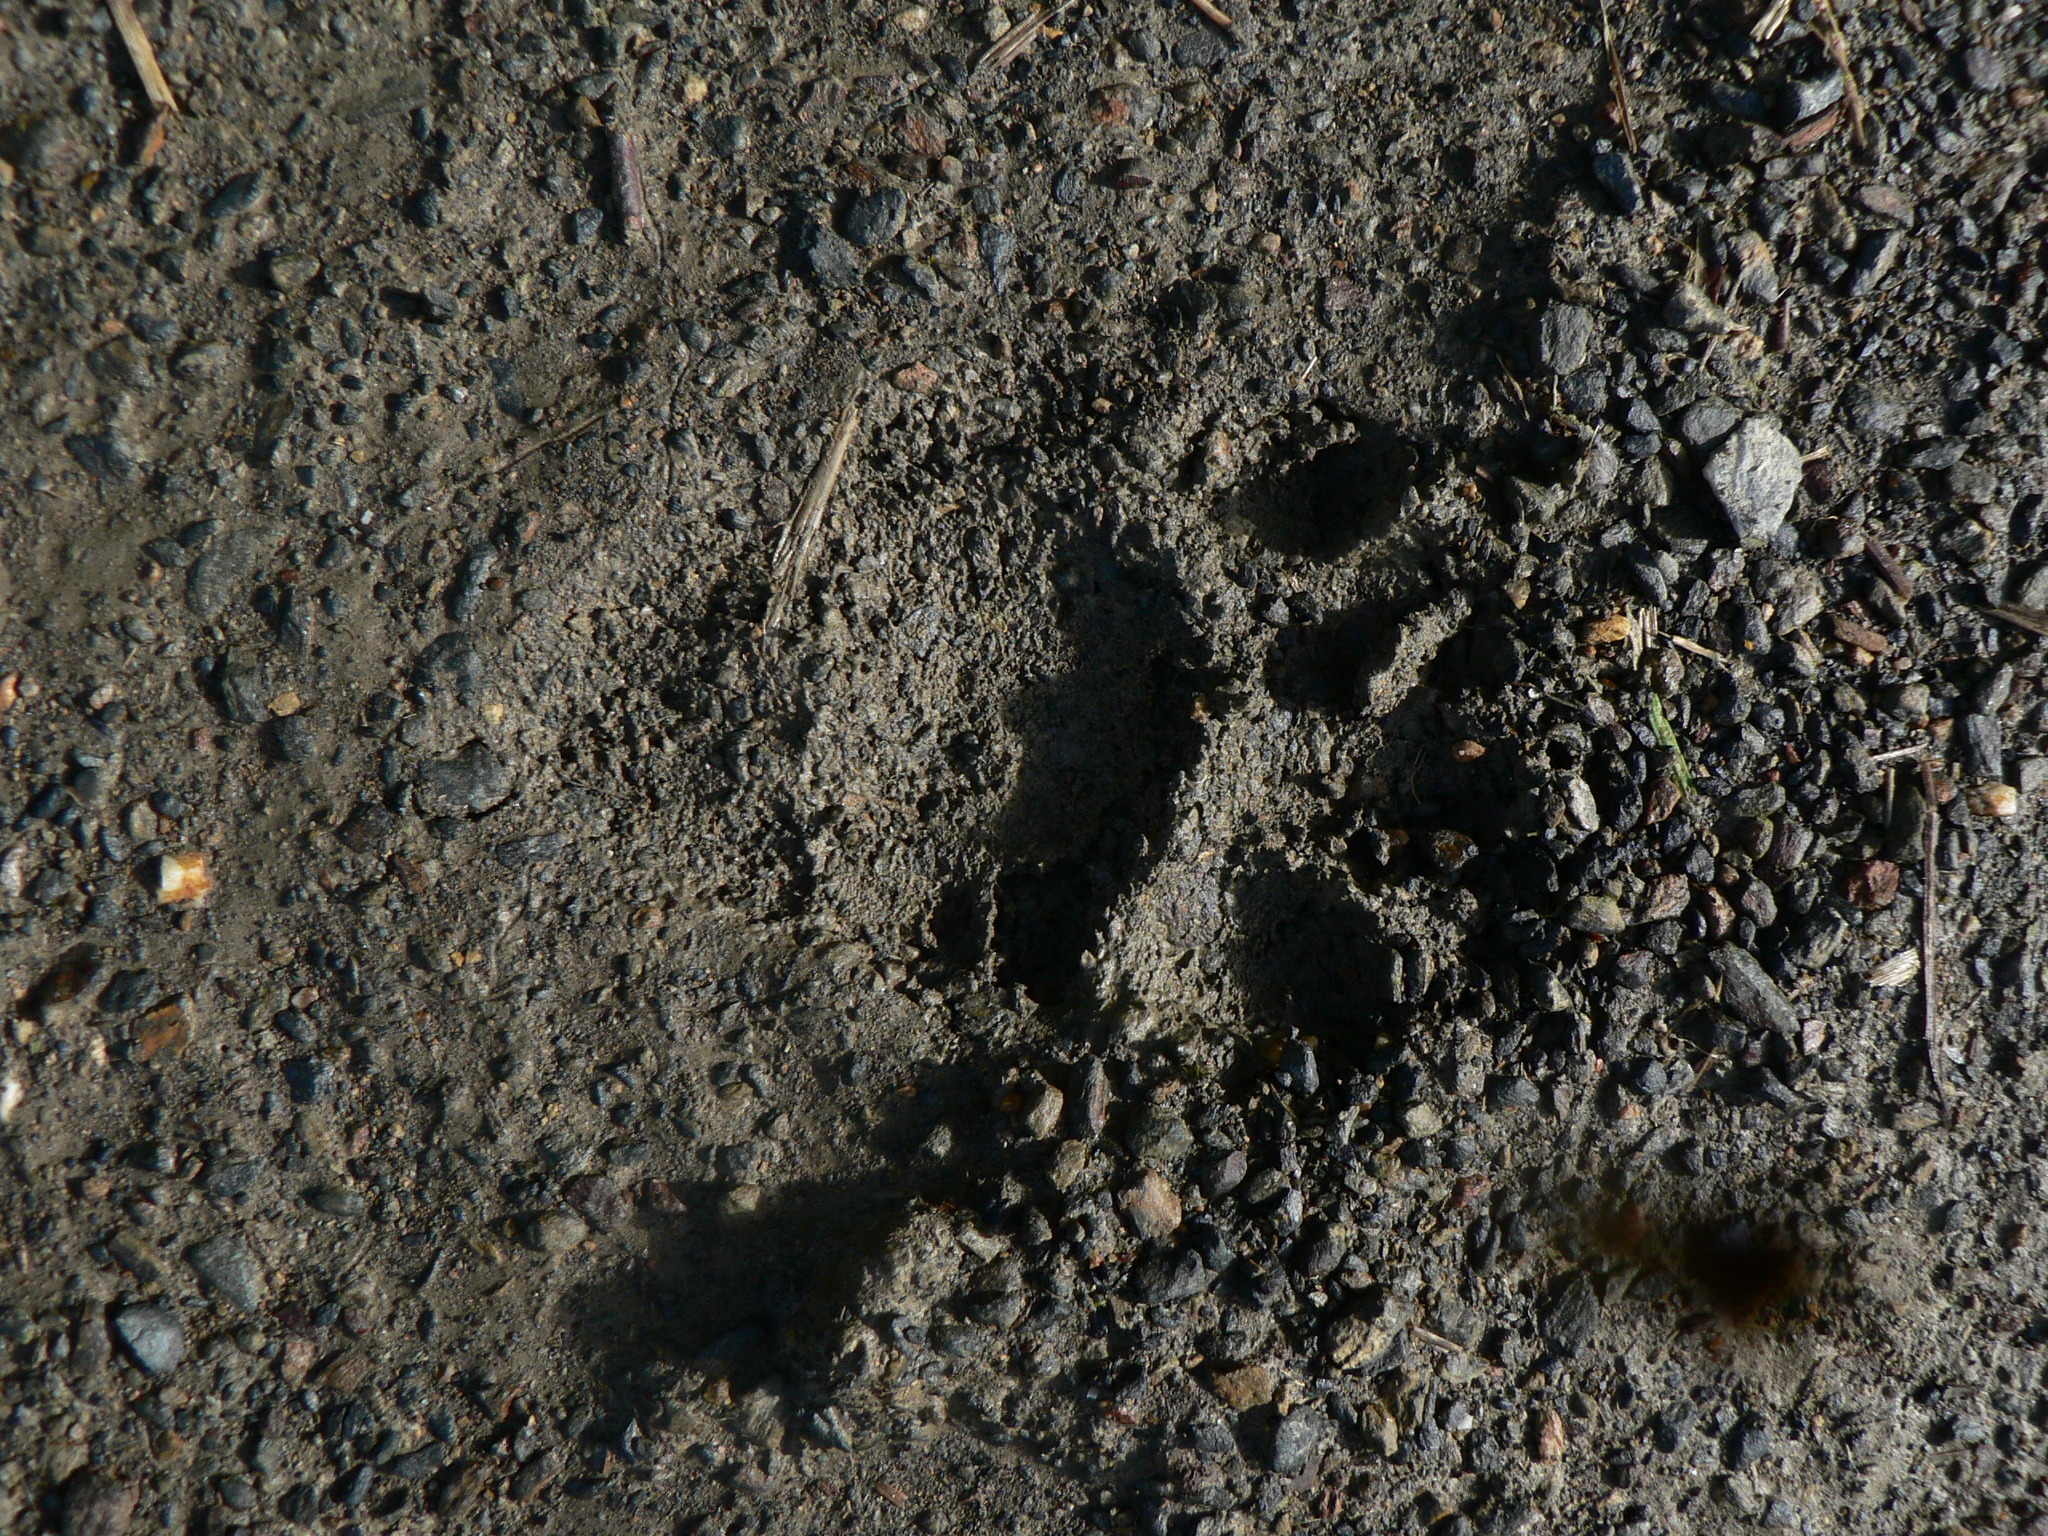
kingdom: Animalia
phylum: Chordata
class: Mammalia
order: Carnivora
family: Mustelidae
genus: Meles
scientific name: Meles meles
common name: Eurasian badger
